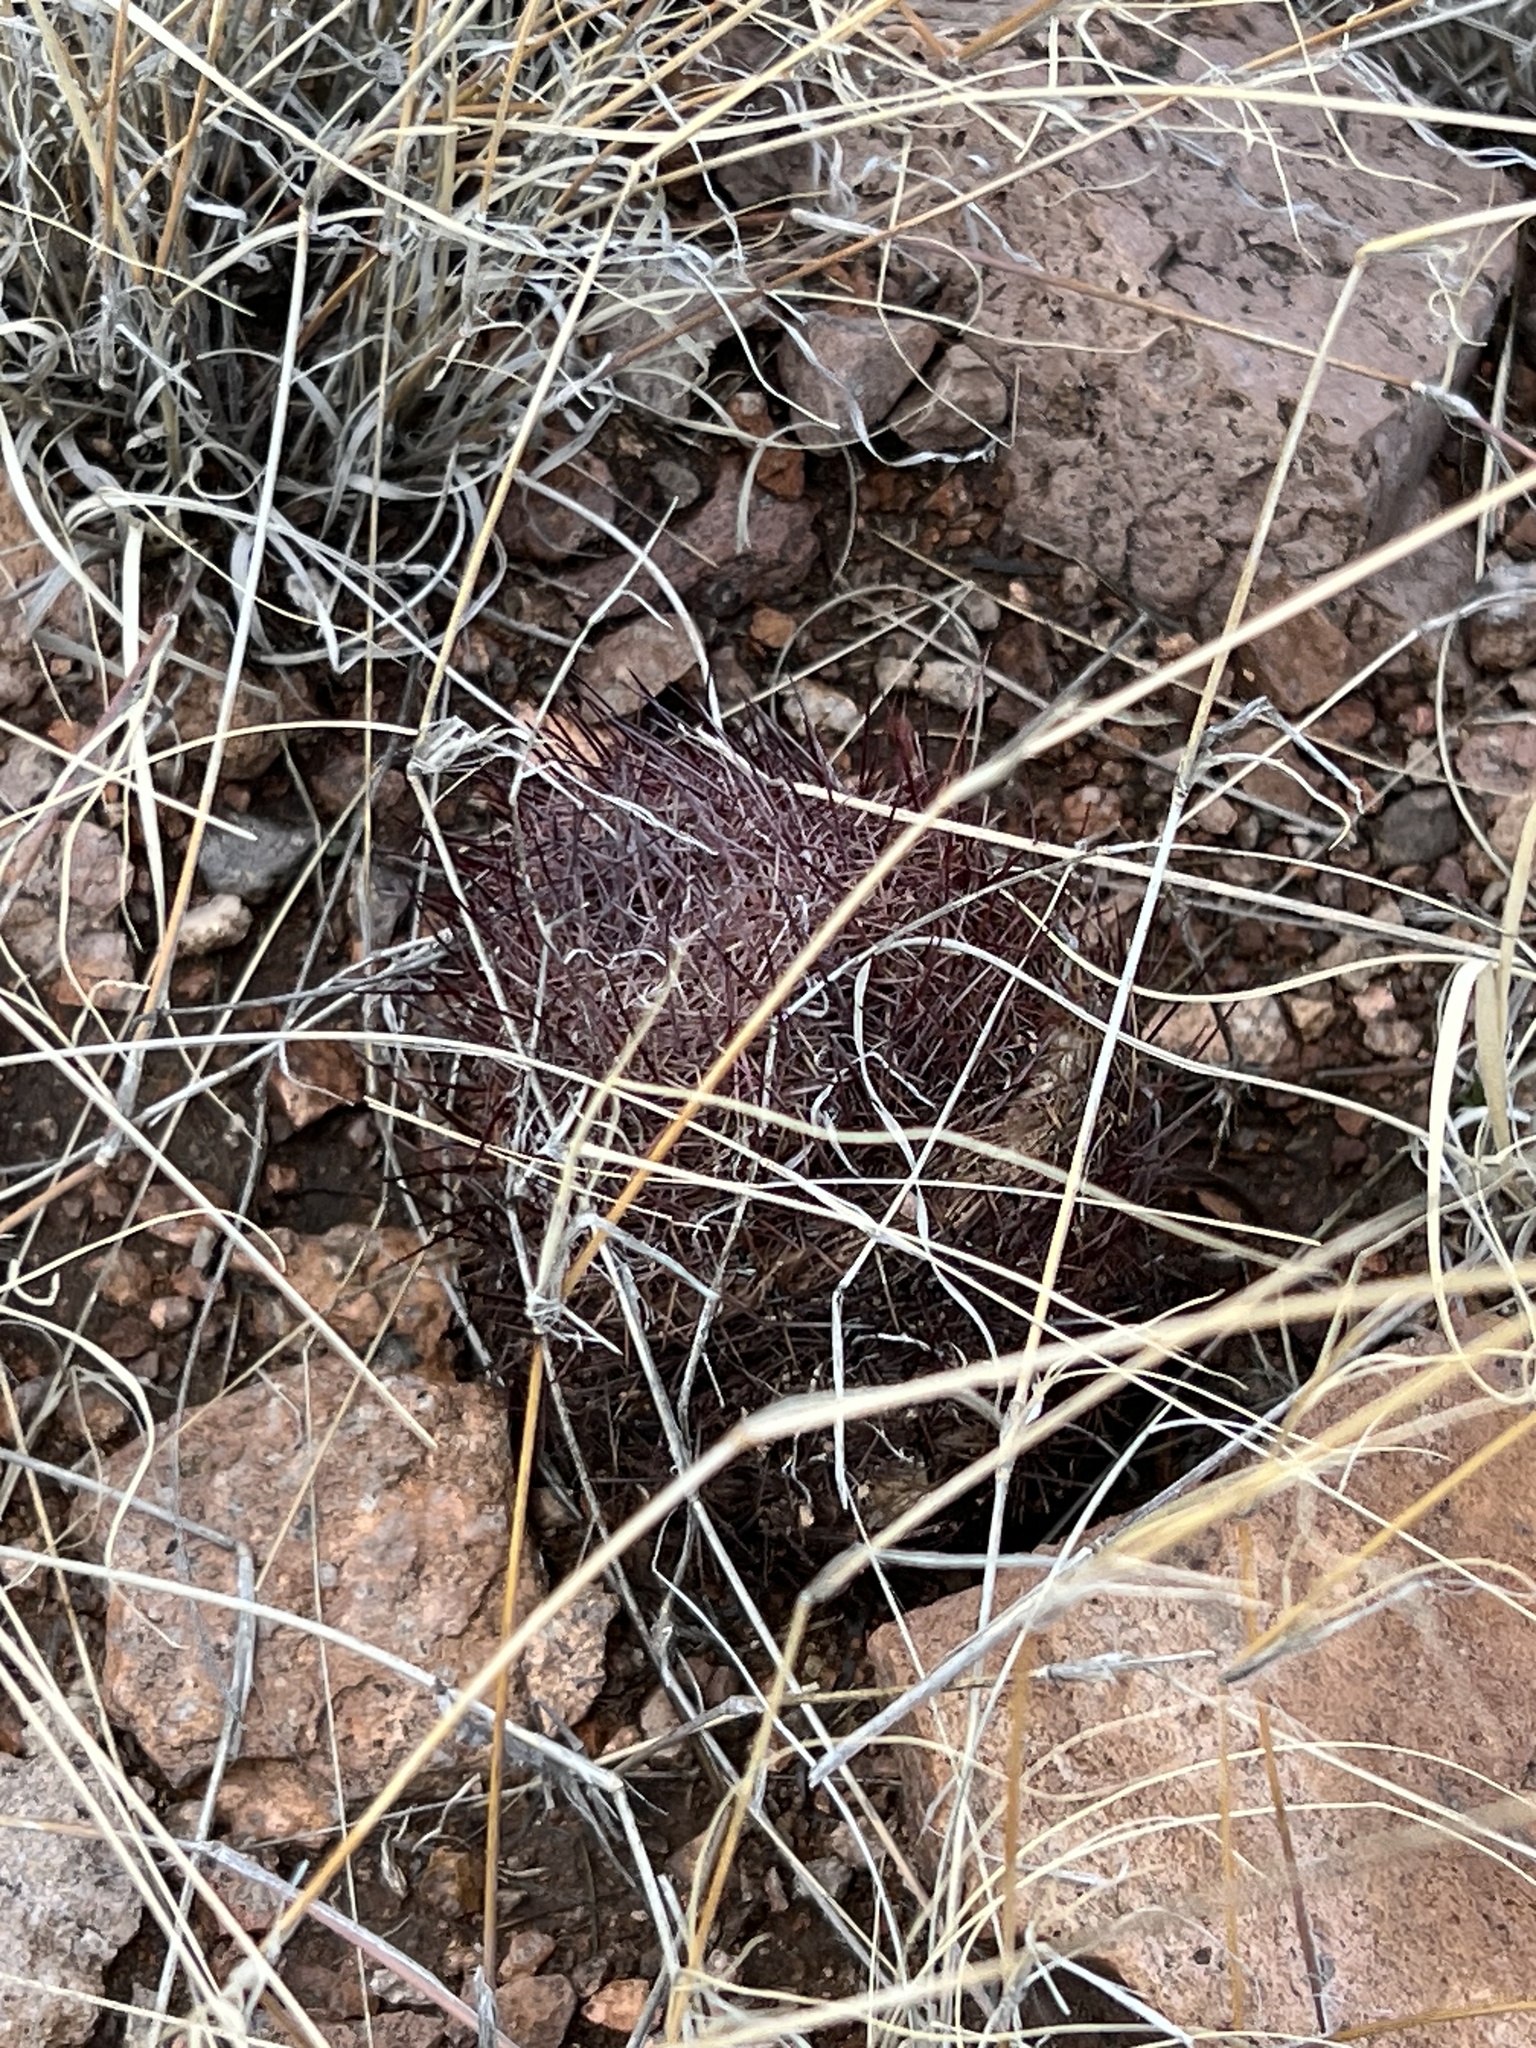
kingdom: Plantae
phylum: Tracheophyta
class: Magnoliopsida
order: Caryophyllales
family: Cactaceae
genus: Sclerocactus
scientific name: Sclerocactus johnsonii
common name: Eight-spine fishhook cactus
